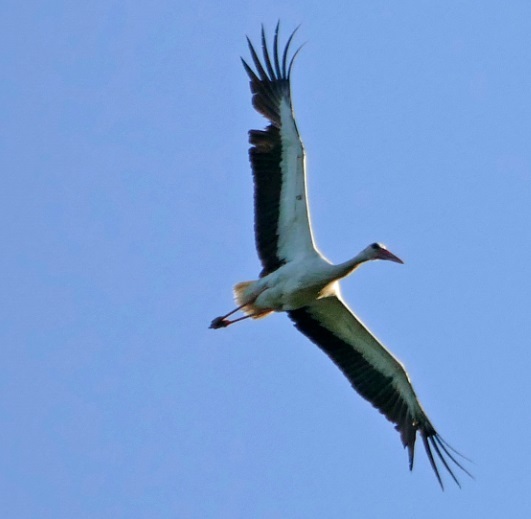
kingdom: Animalia
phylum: Chordata
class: Aves
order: Ciconiiformes
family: Ciconiidae
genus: Ciconia
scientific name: Ciconia ciconia
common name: White stork
